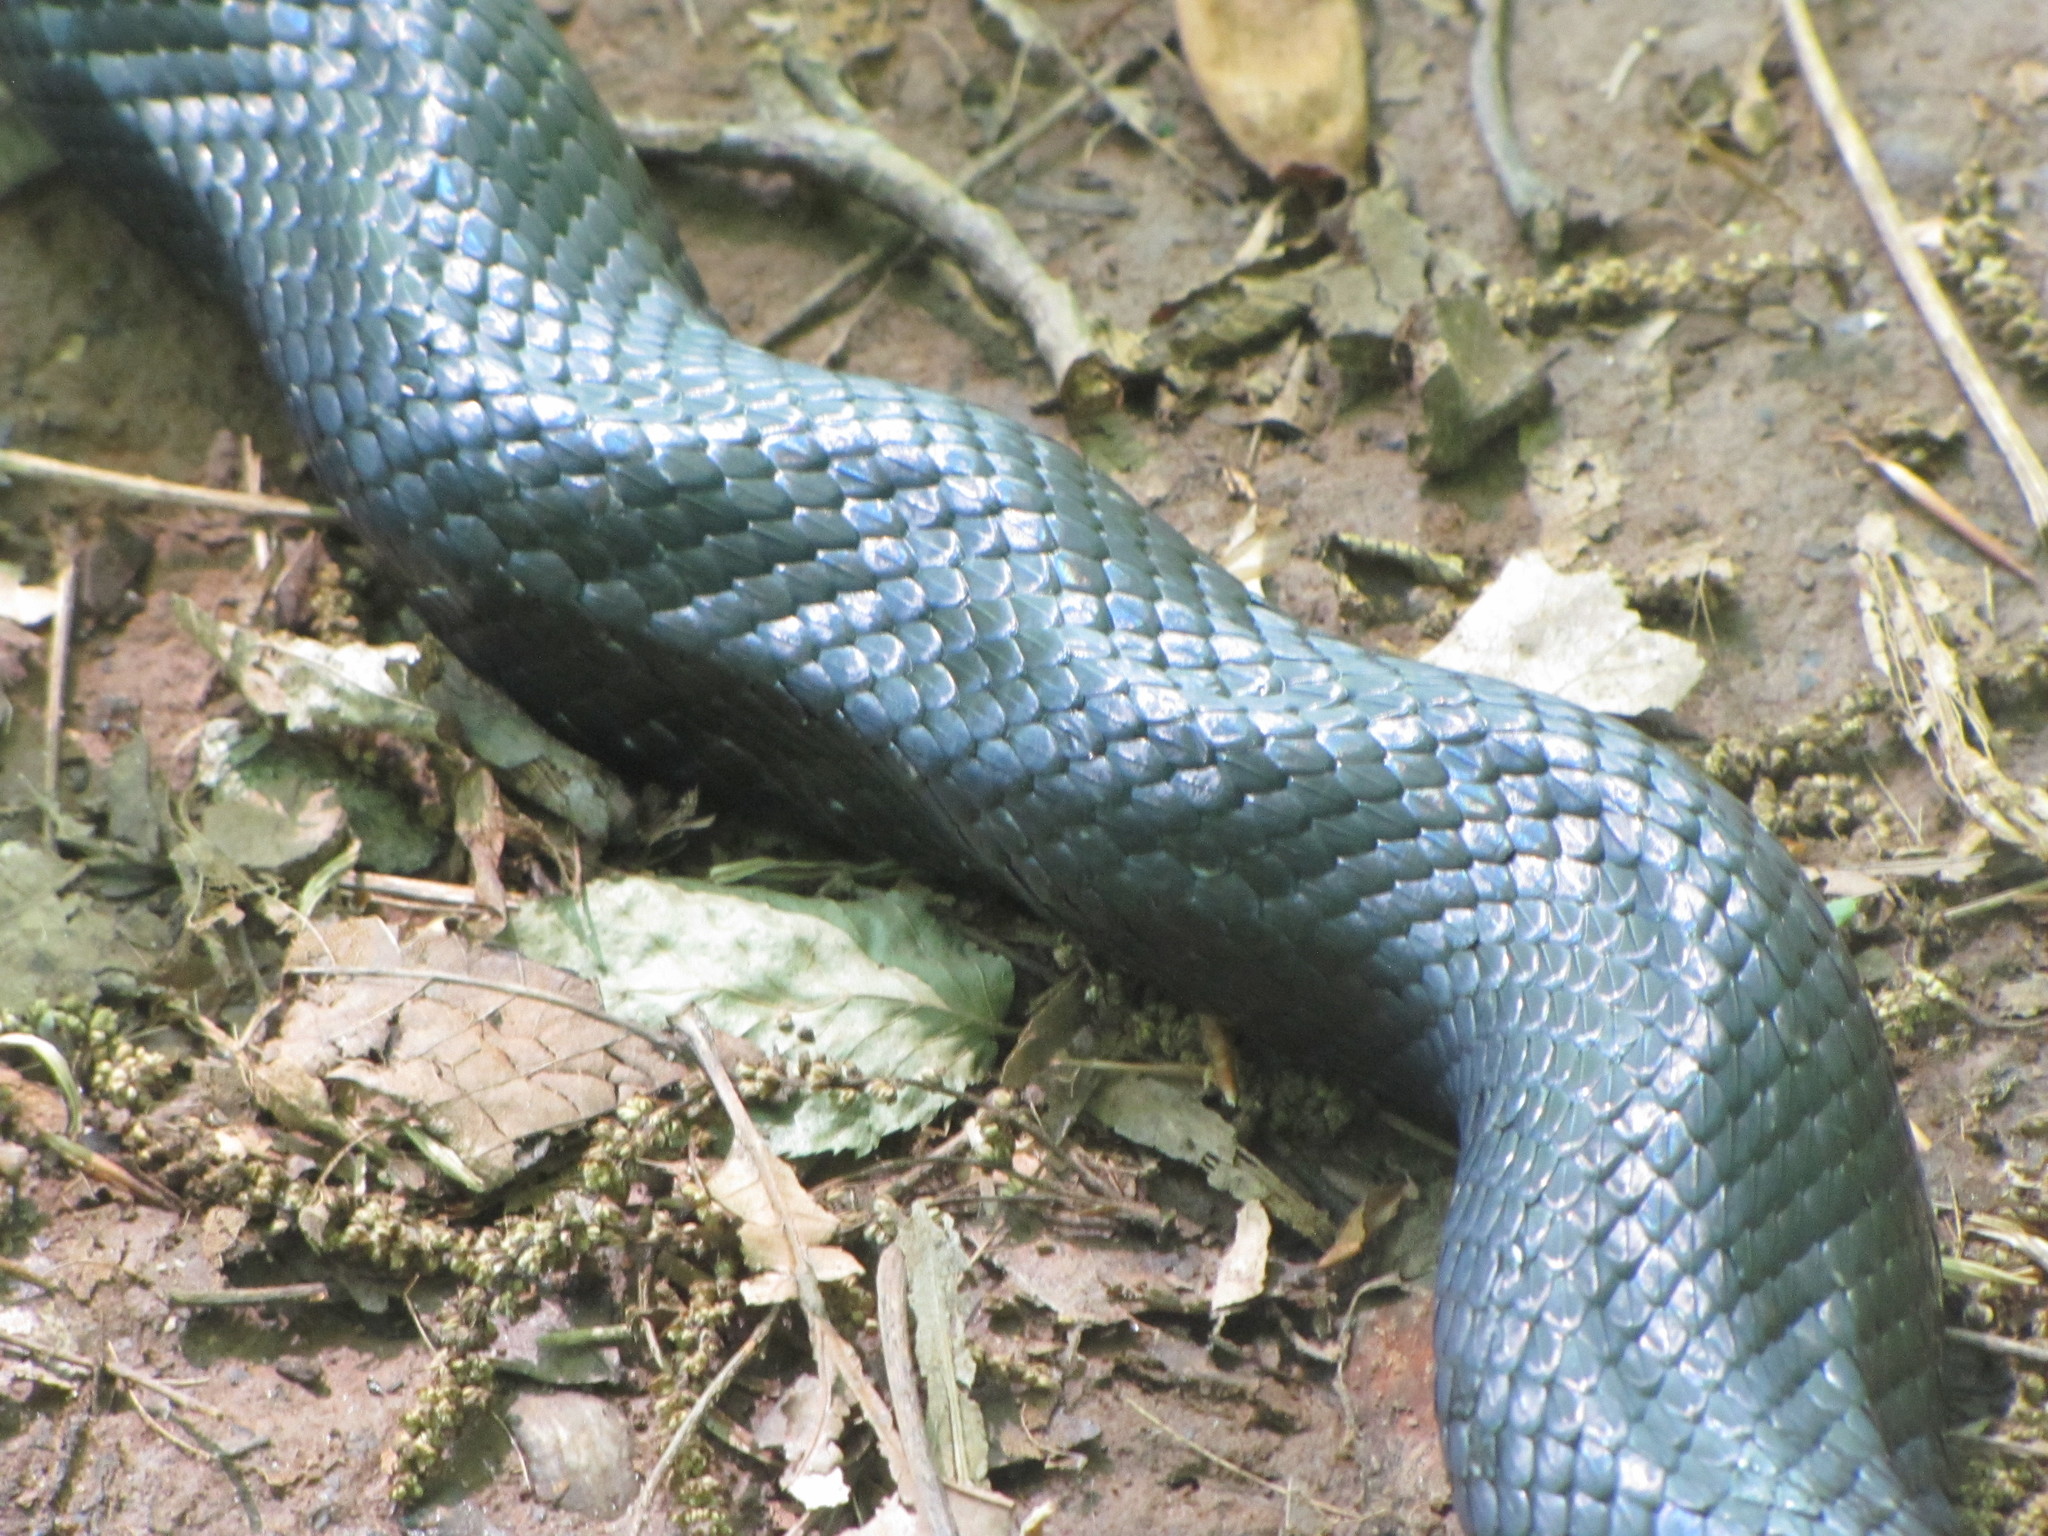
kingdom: Animalia
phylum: Chordata
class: Squamata
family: Colubridae
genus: Pantherophis
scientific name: Pantherophis alleghaniensis
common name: Eastern rat snake
